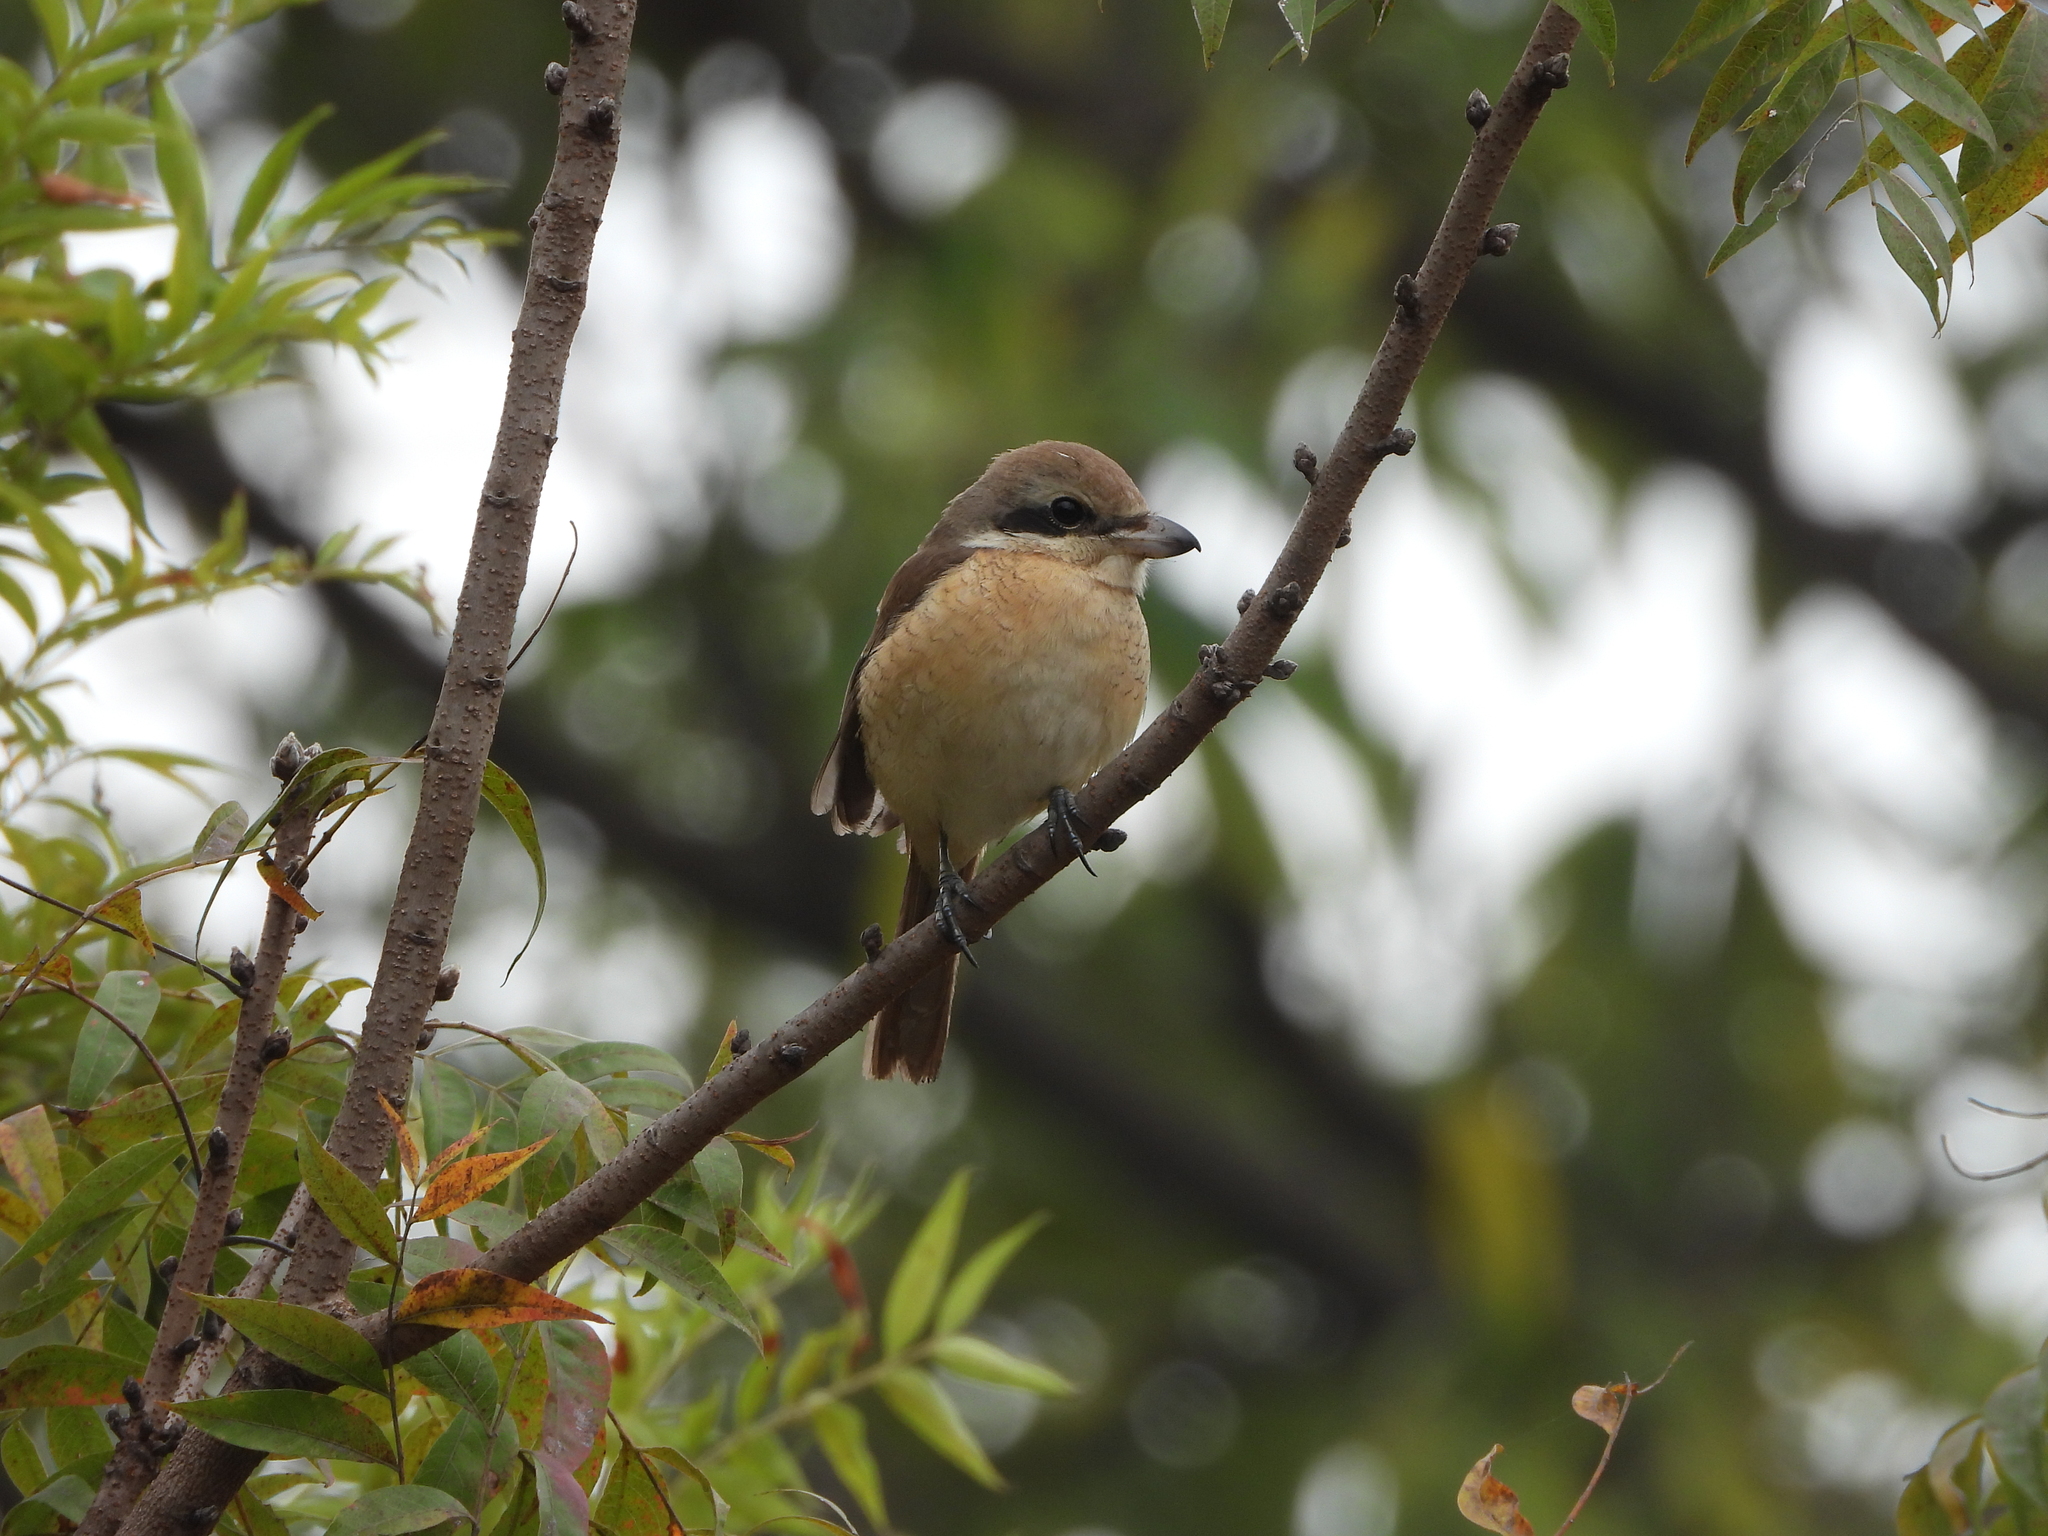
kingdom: Animalia
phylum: Chordata
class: Aves
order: Passeriformes
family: Laniidae
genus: Lanius
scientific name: Lanius cristatus
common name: Brown shrike
